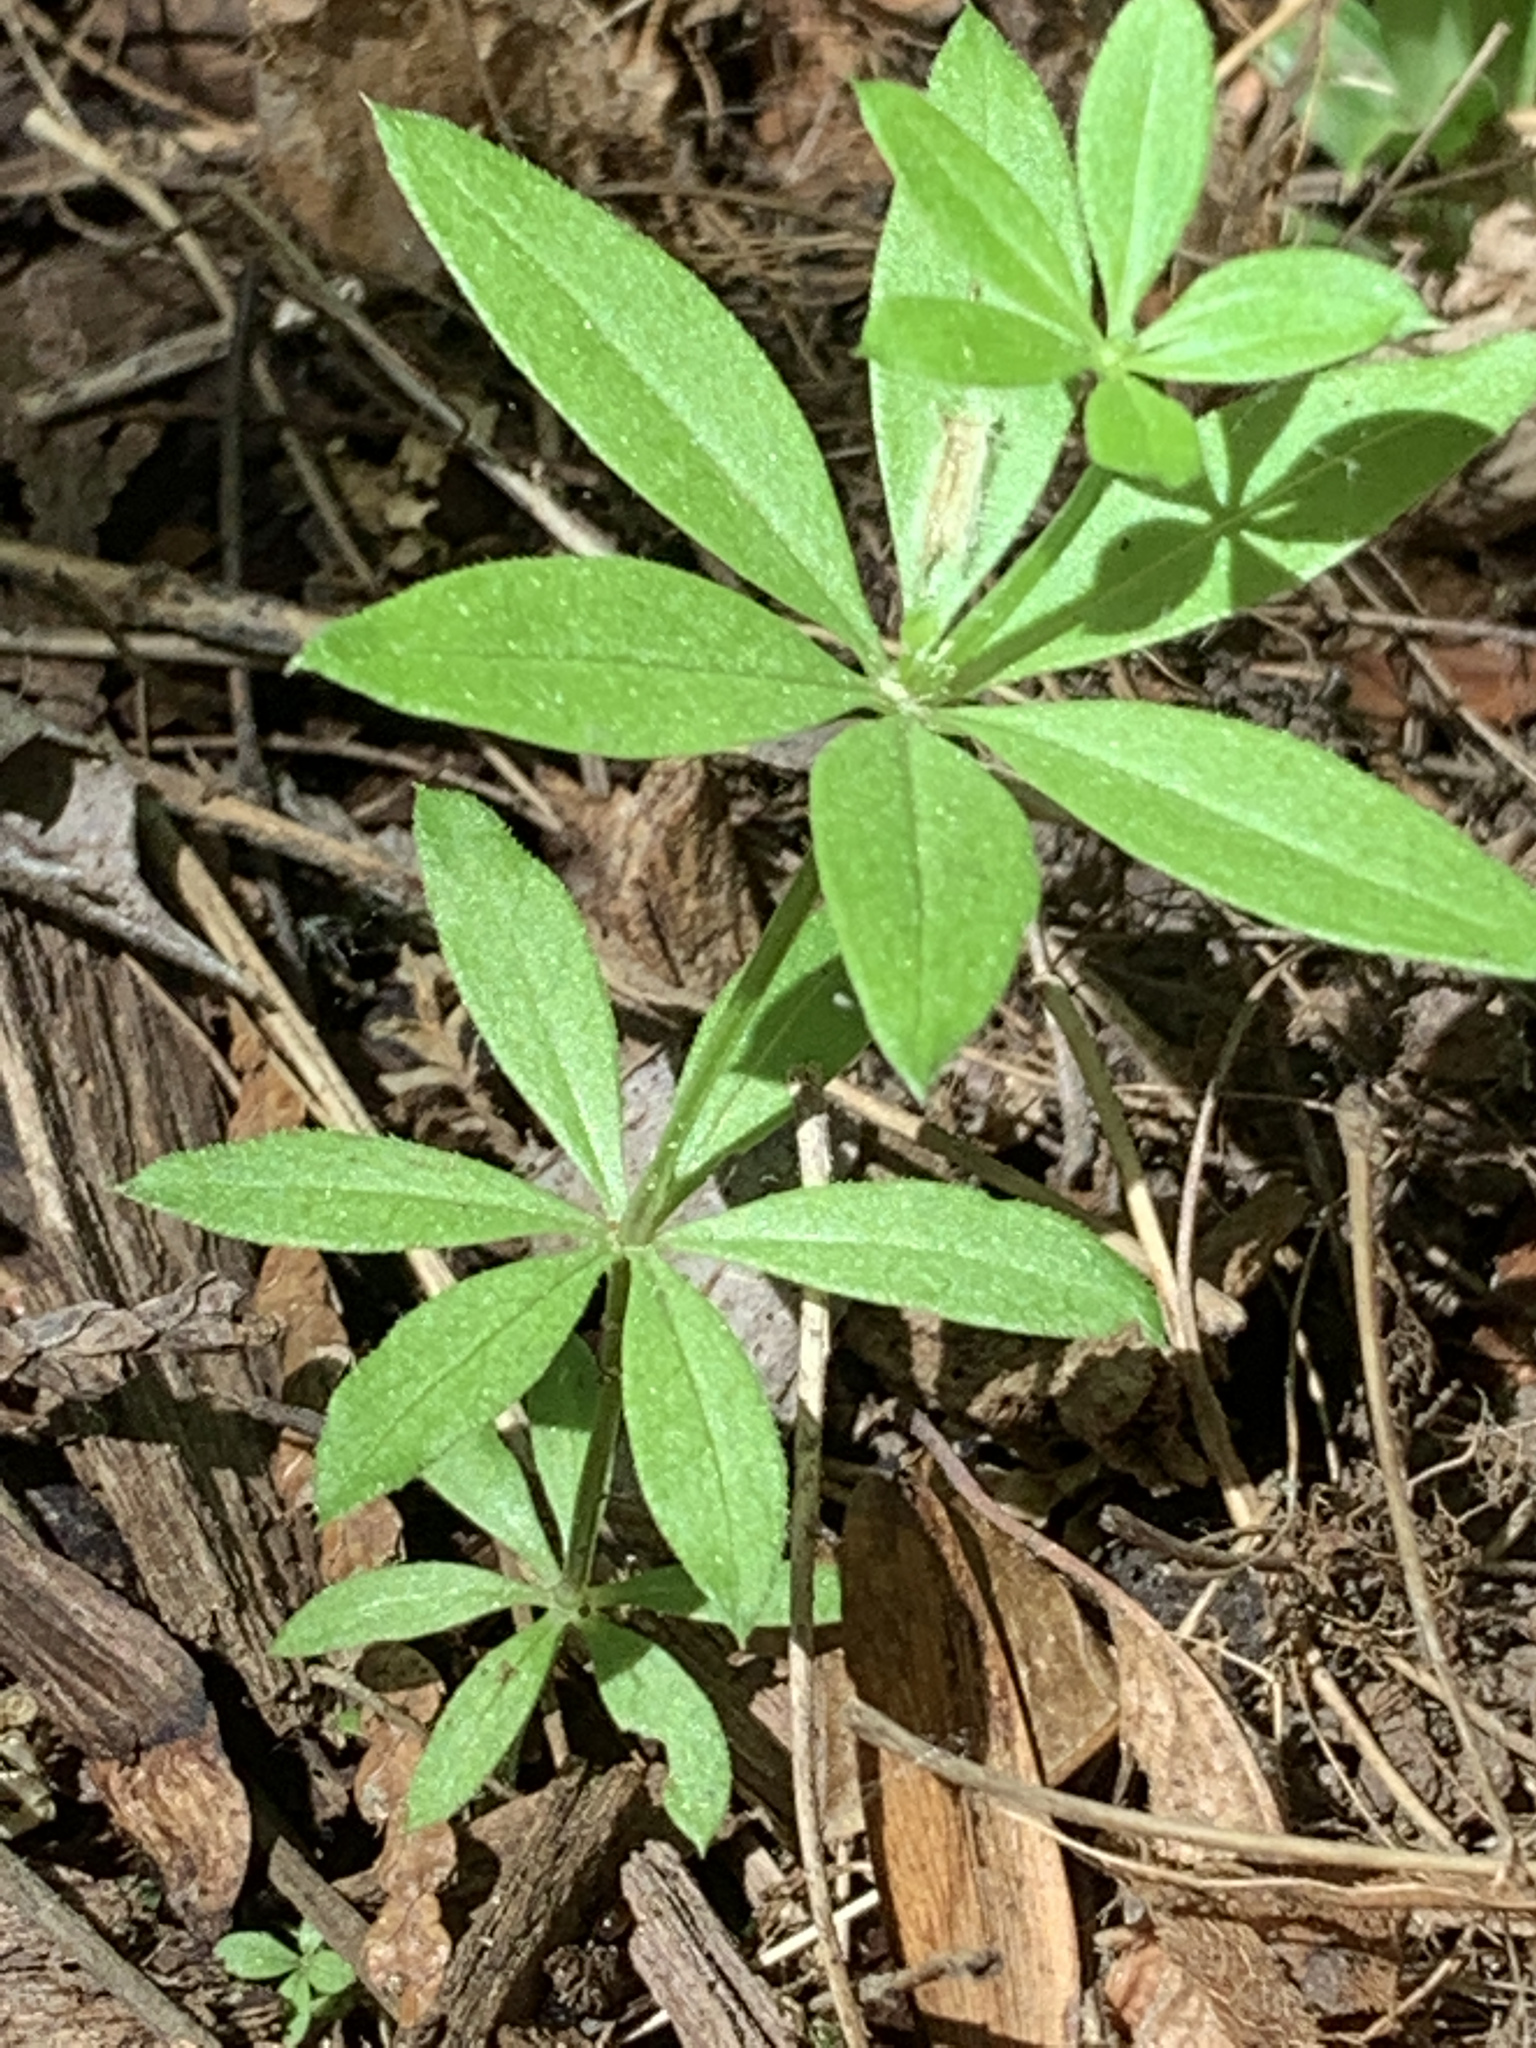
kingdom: Plantae
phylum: Tracheophyta
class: Magnoliopsida
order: Gentianales
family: Rubiaceae
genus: Galium
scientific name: Galium triflorum
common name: Fragrant bedstraw
